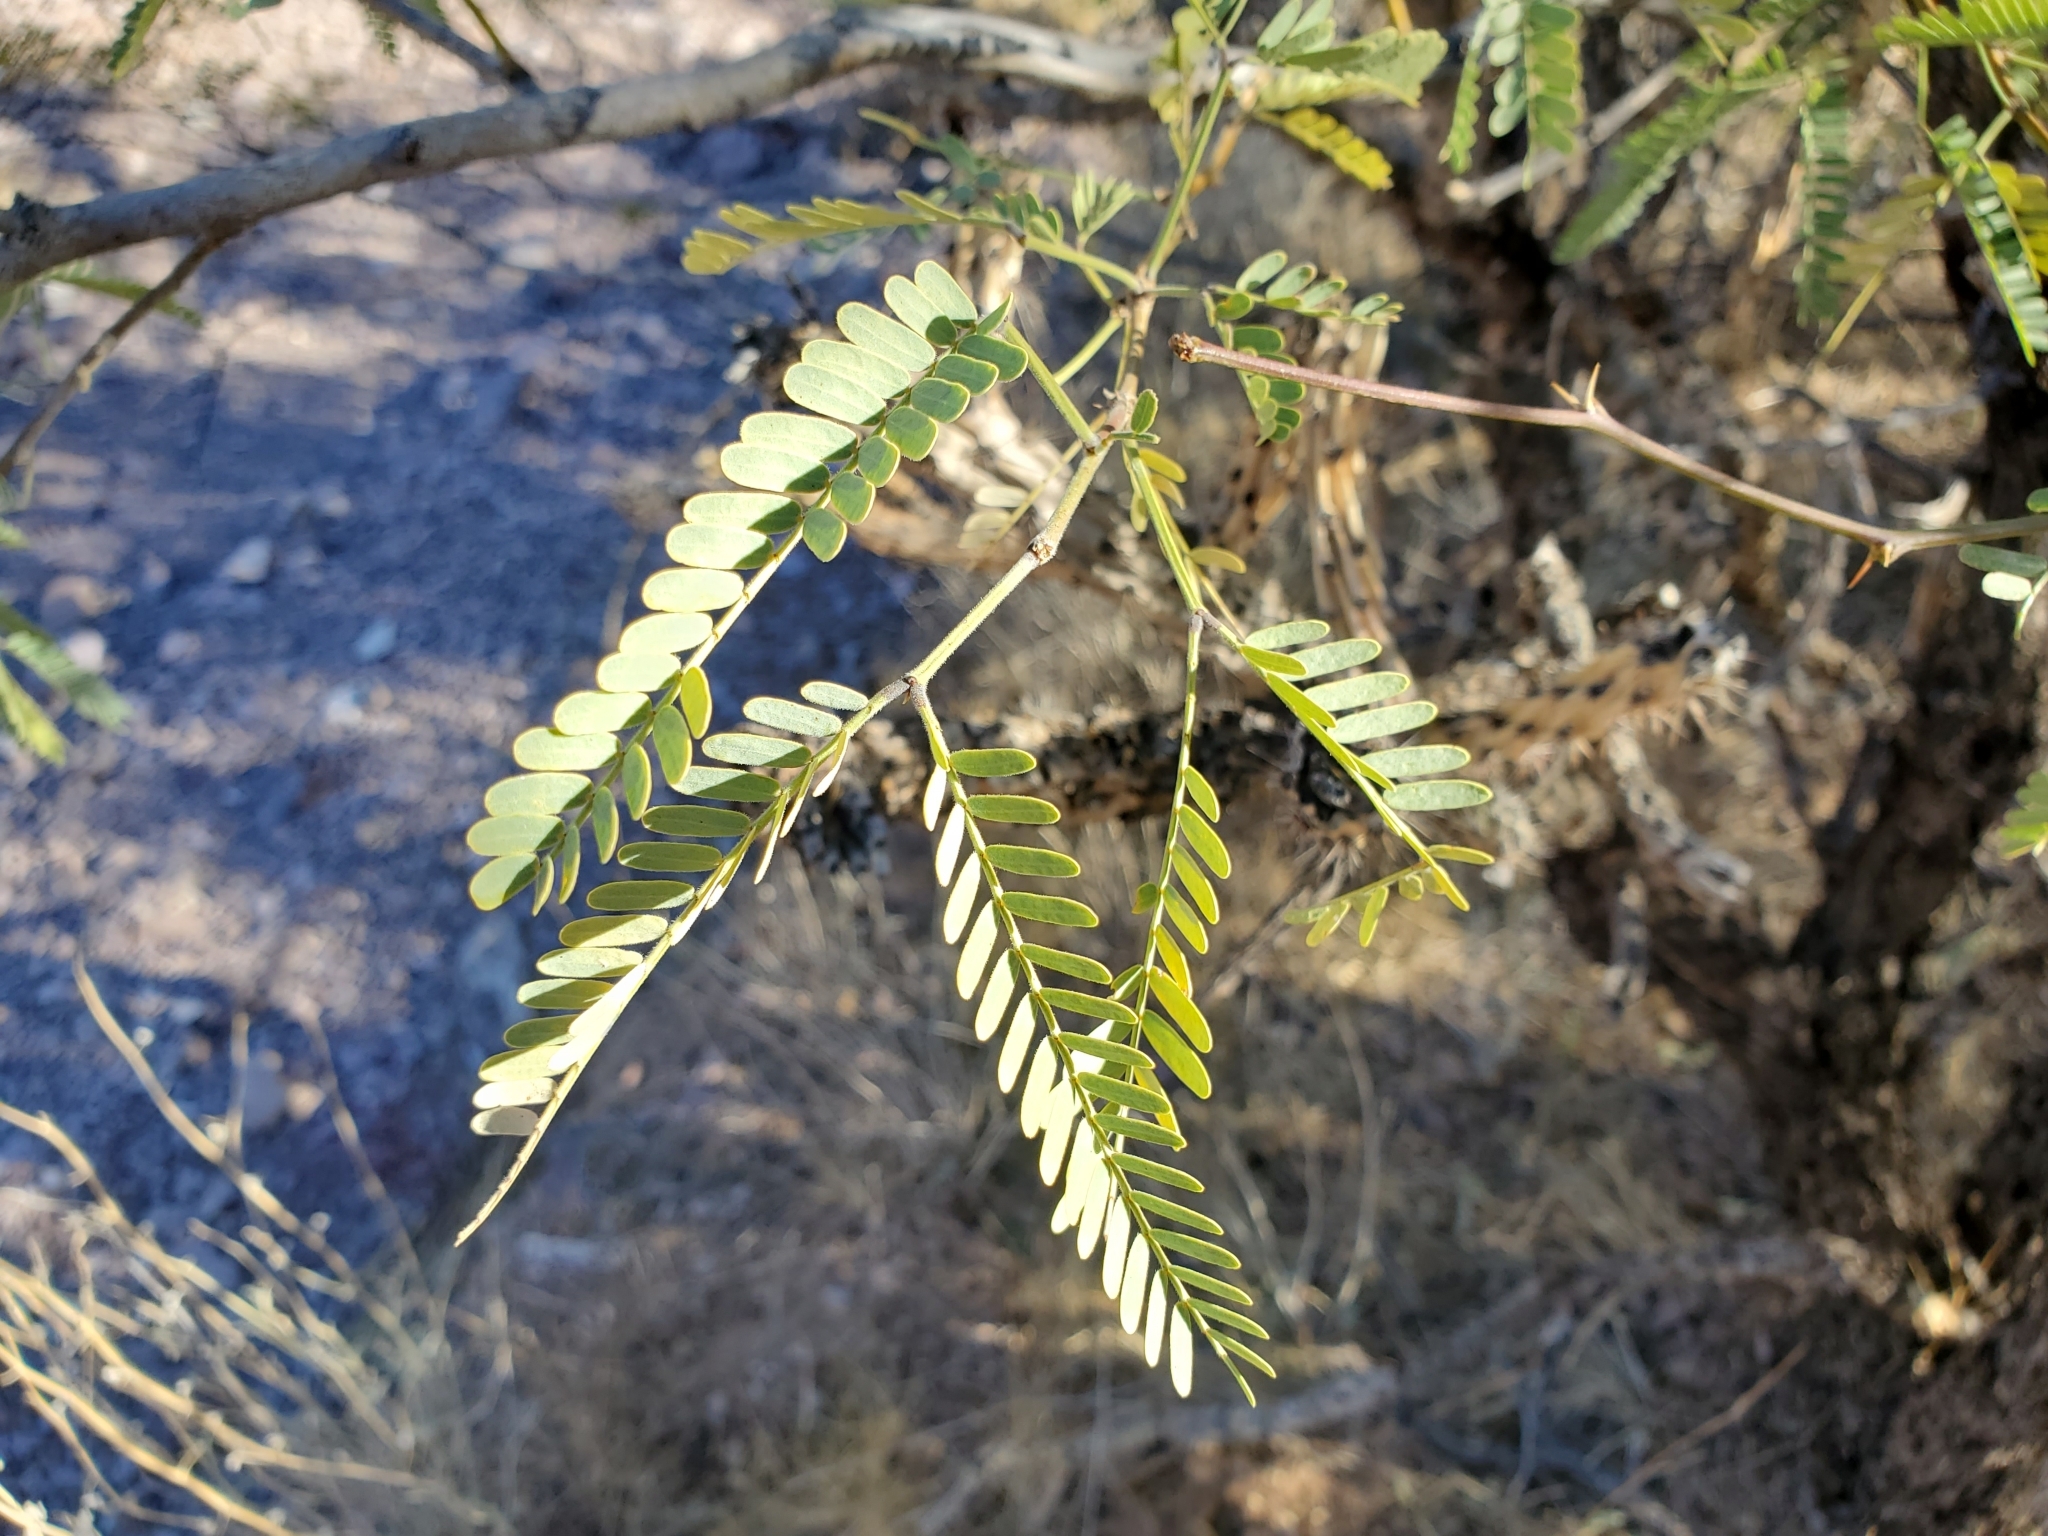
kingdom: Plantae
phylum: Tracheophyta
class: Magnoliopsida
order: Fabales
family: Fabaceae
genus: Prosopis
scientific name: Prosopis velutina
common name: Velvet mesquite
